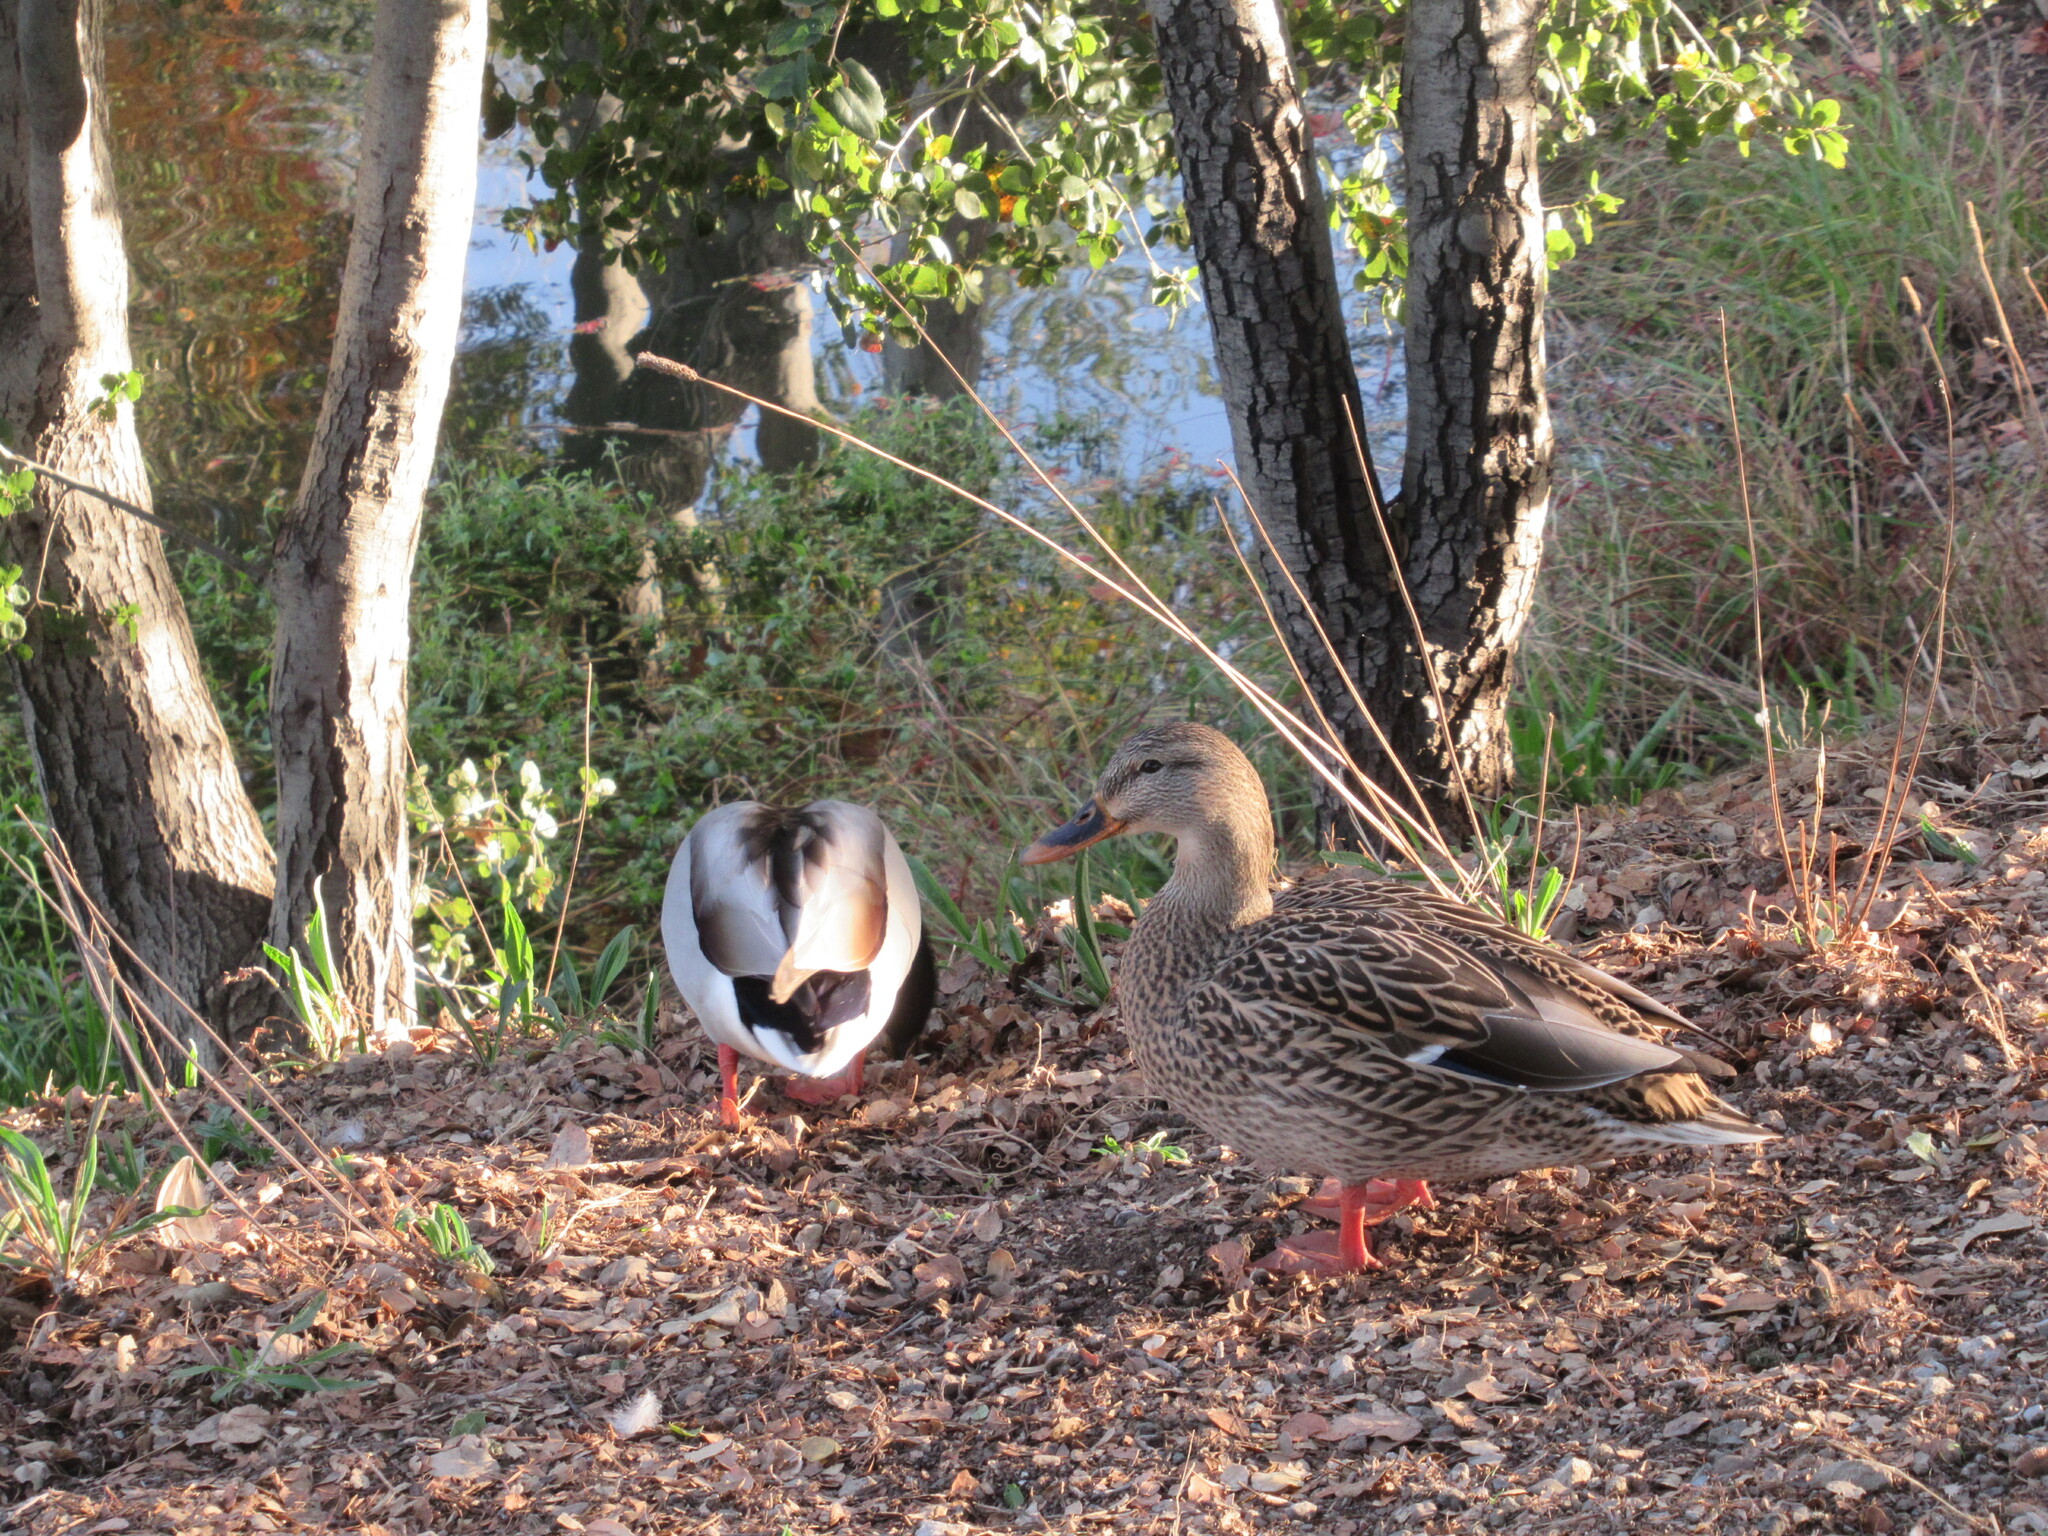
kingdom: Animalia
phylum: Chordata
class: Aves
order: Anseriformes
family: Anatidae
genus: Anas
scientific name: Anas platyrhynchos
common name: Mallard
